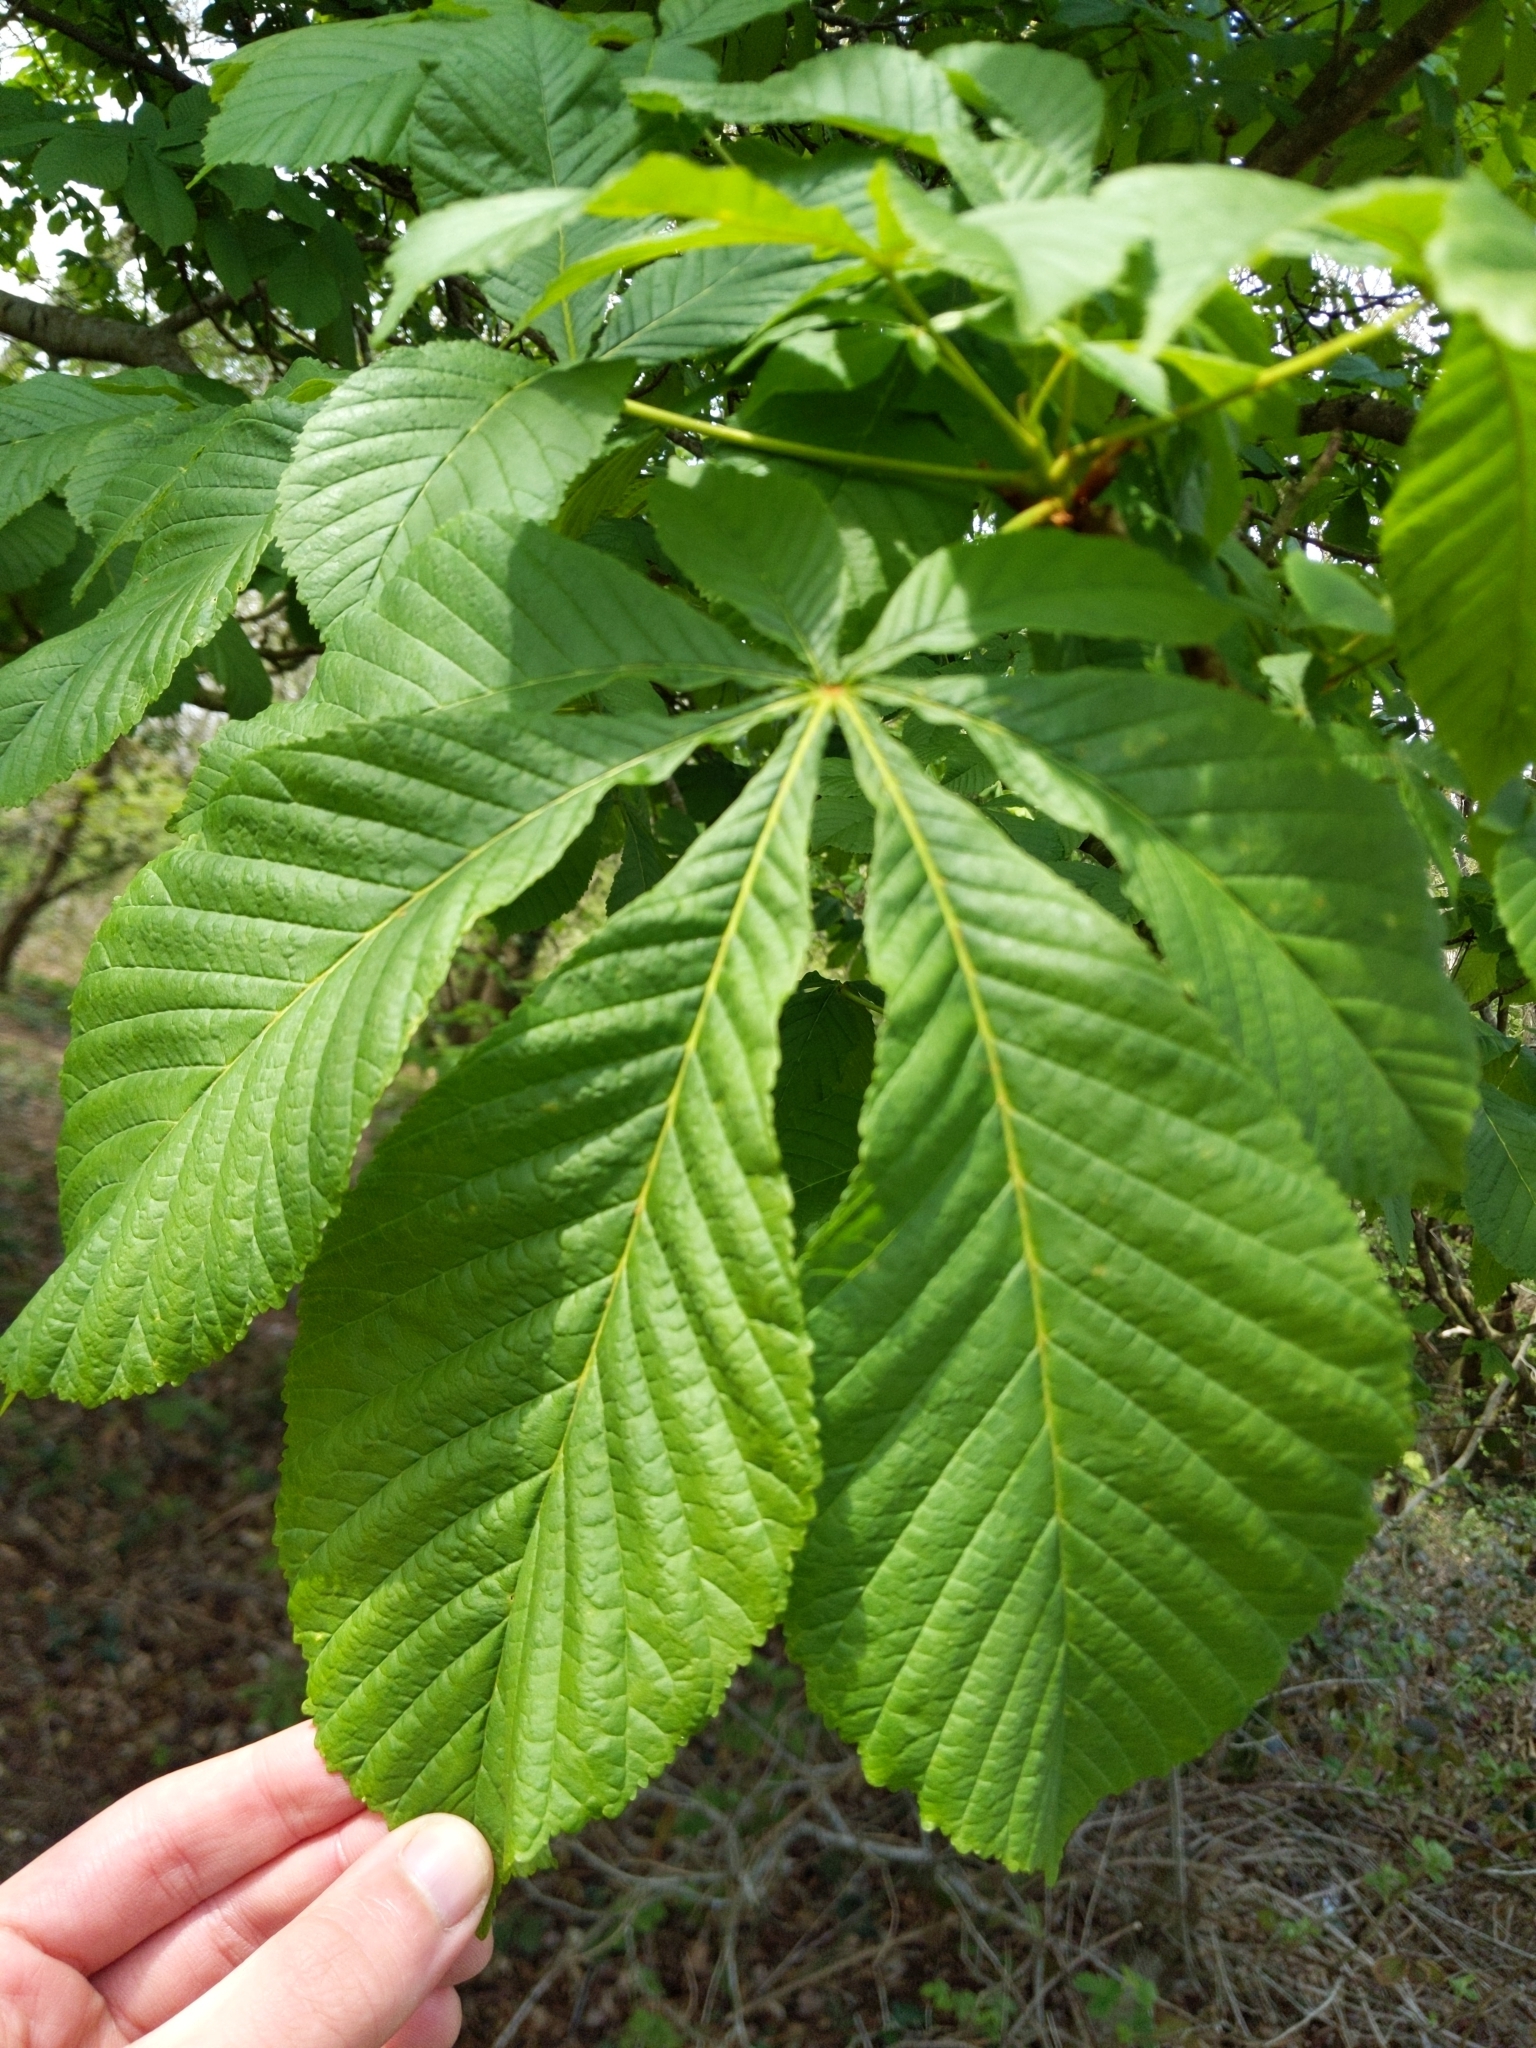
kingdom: Plantae
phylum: Tracheophyta
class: Magnoliopsida
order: Sapindales
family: Sapindaceae
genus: Aesculus
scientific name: Aesculus hippocastanum
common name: Horse-chestnut
